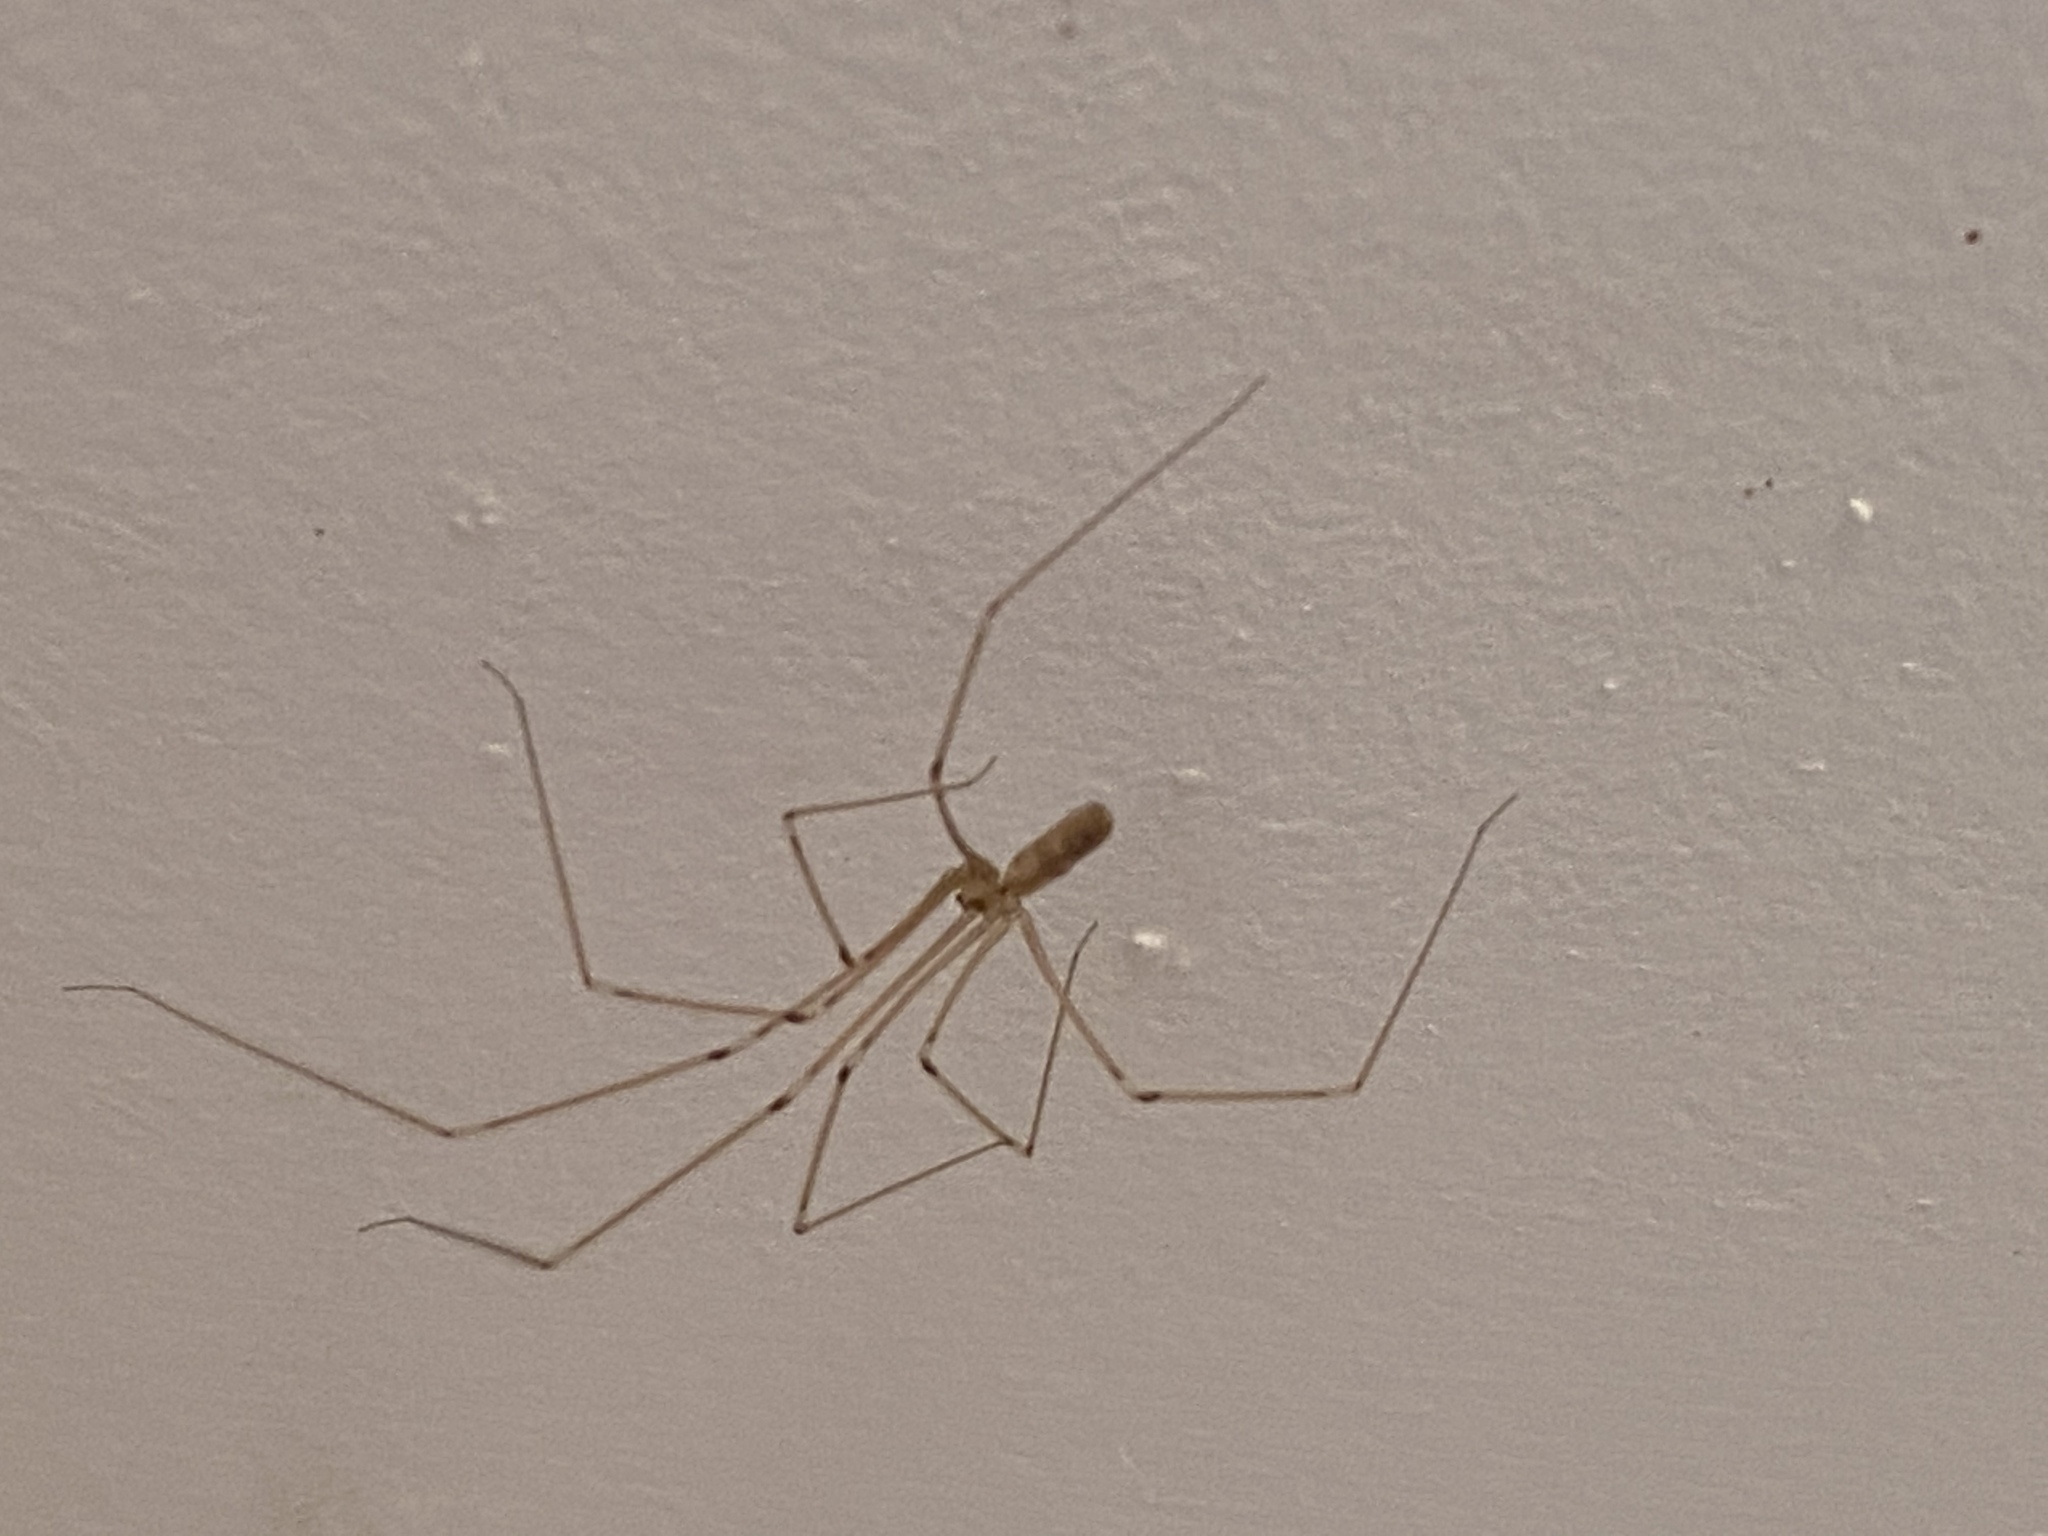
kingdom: Animalia
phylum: Arthropoda
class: Arachnida
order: Araneae
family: Pholcidae
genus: Pholcus
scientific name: Pholcus phalangioides
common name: Longbodied cellar spider
